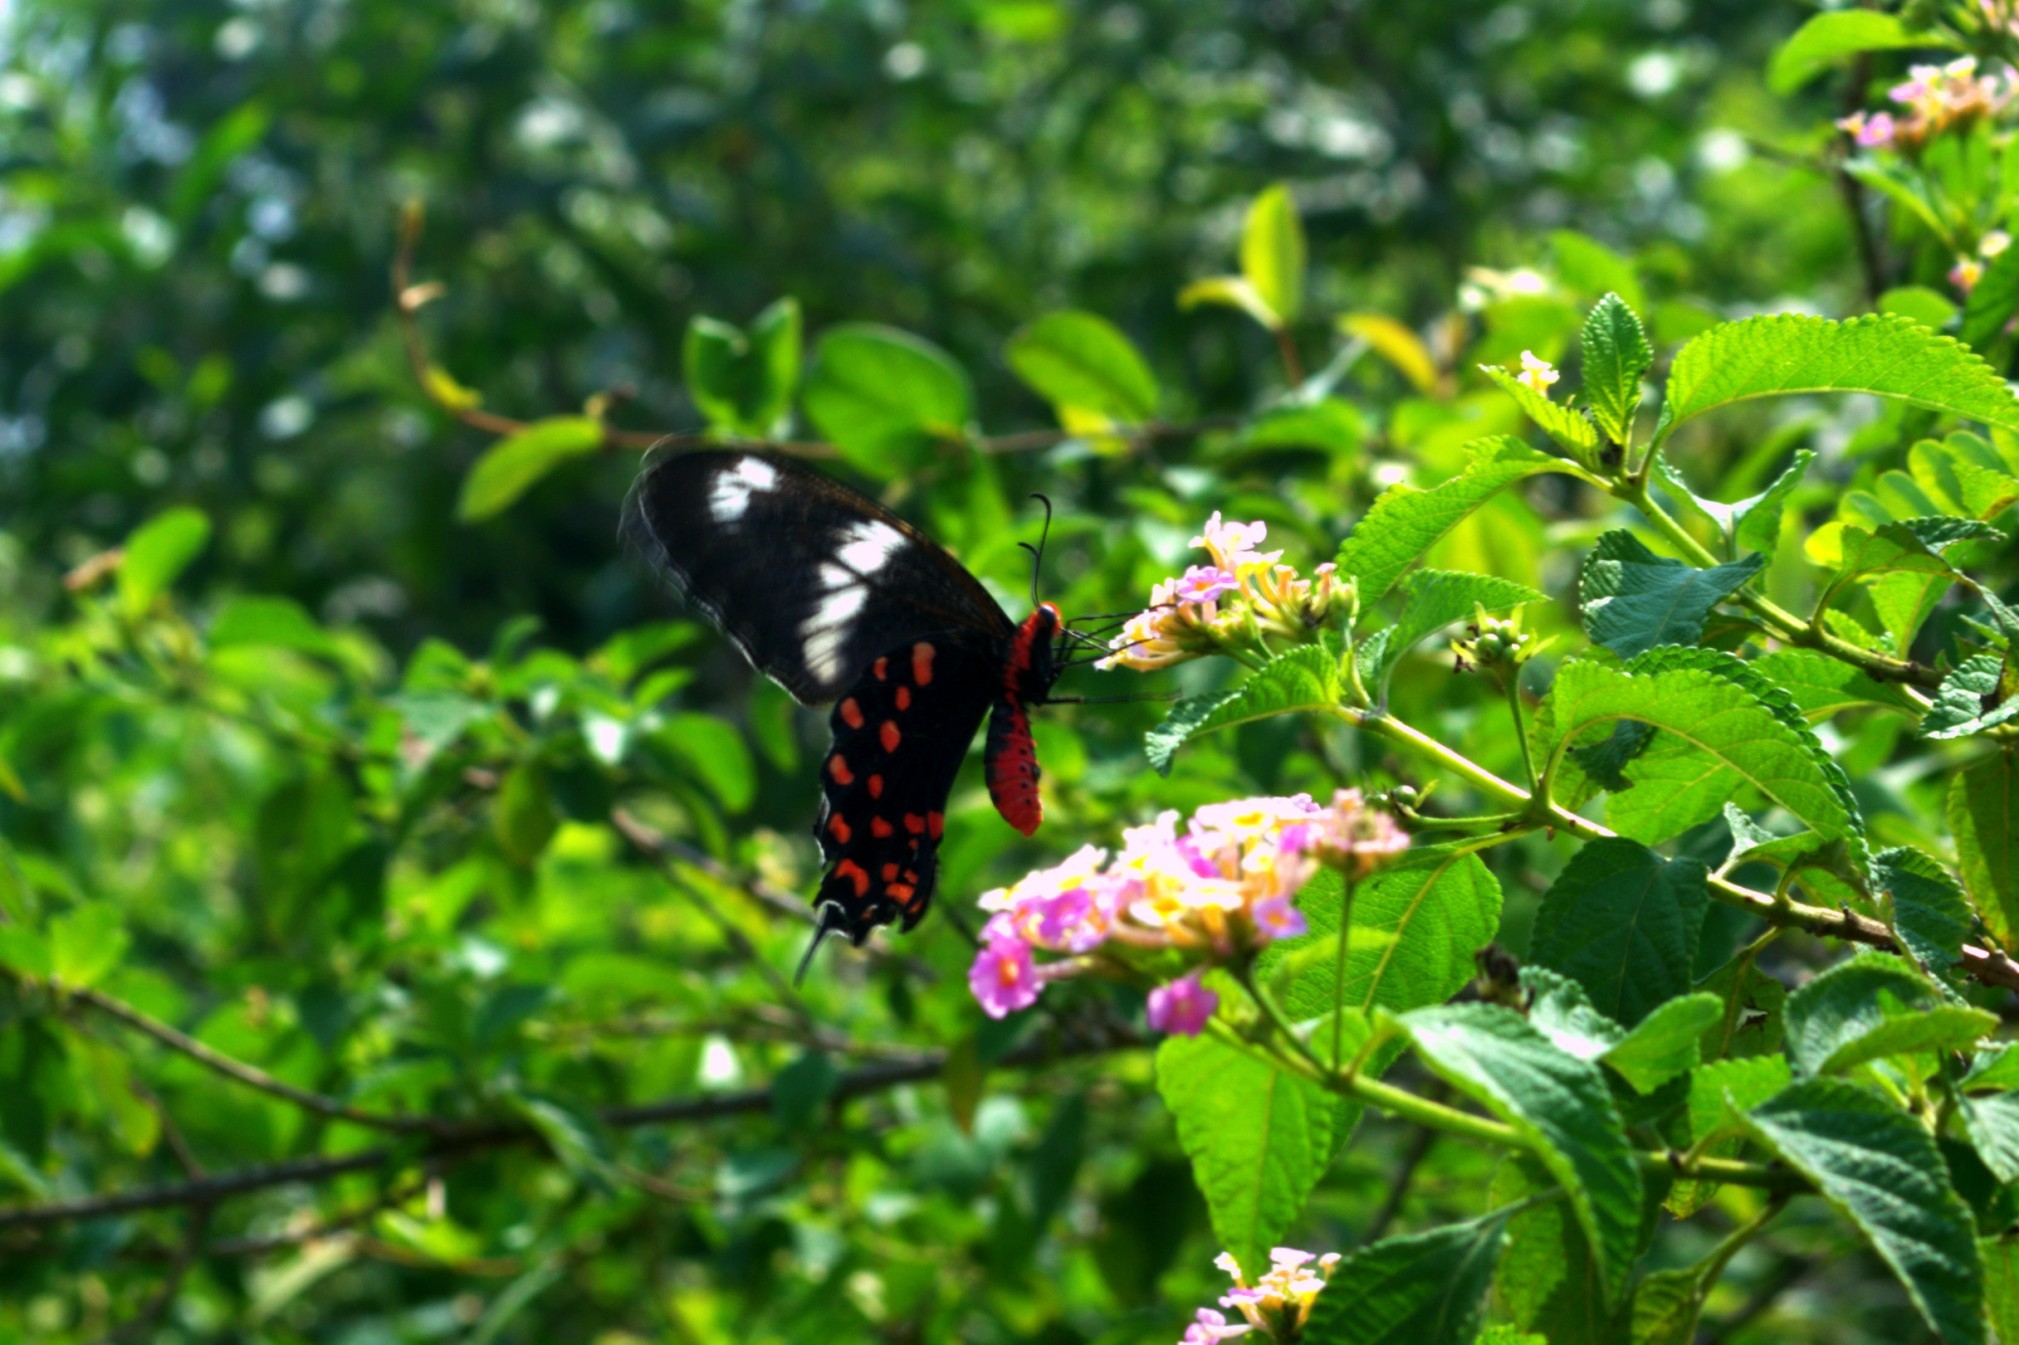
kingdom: Animalia
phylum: Arthropoda
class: Insecta
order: Lepidoptera
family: Papilionidae
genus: Pachliopta
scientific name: Pachliopta hector
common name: Crimson rose
